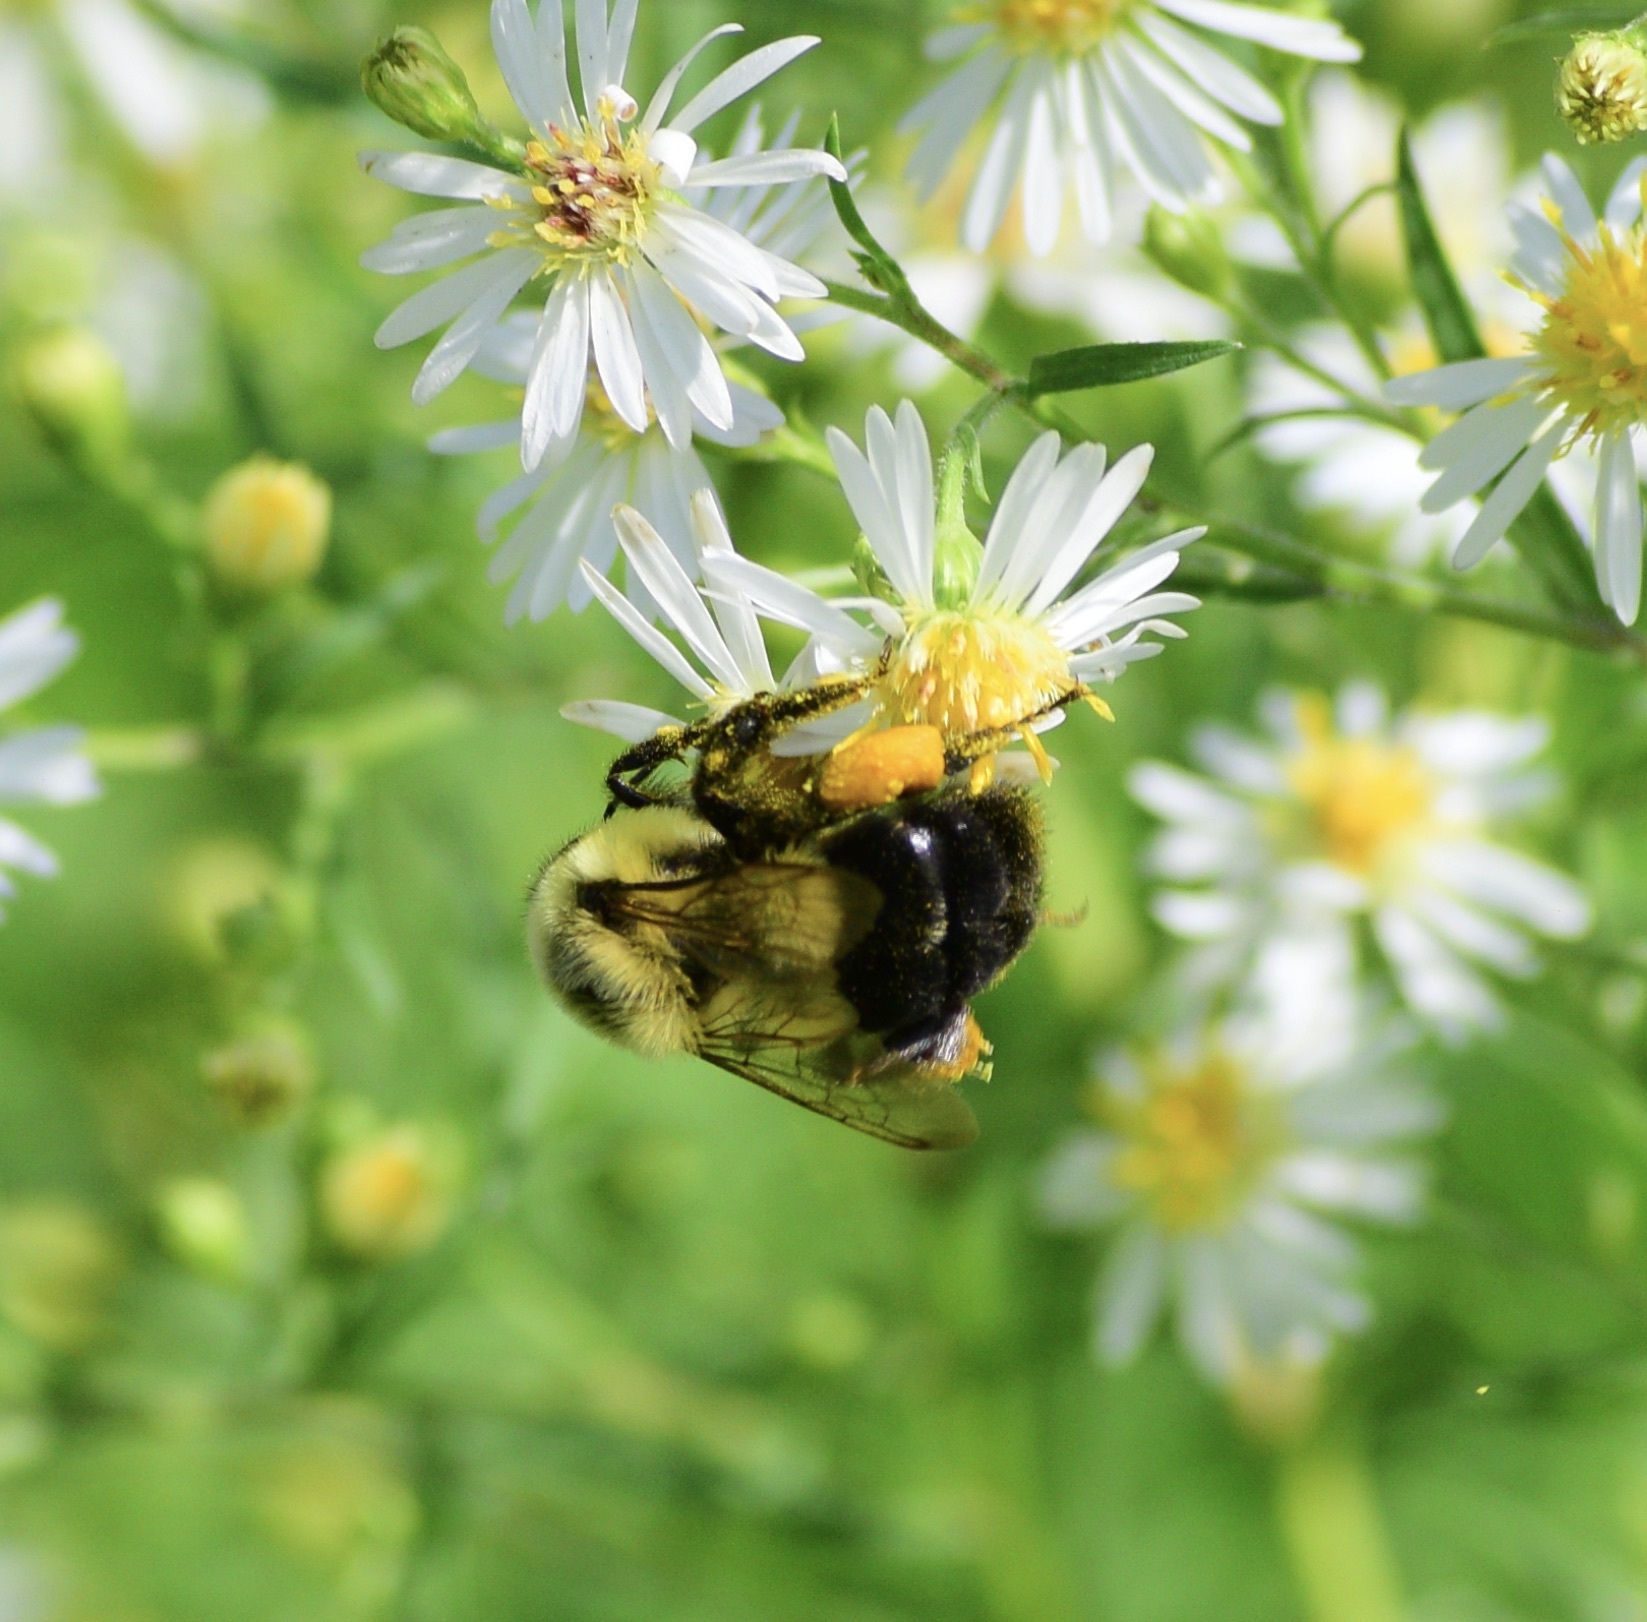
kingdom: Animalia
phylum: Arthropoda
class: Insecta
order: Hymenoptera
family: Apidae
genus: Bombus
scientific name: Bombus impatiens
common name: Common eastern bumble bee
